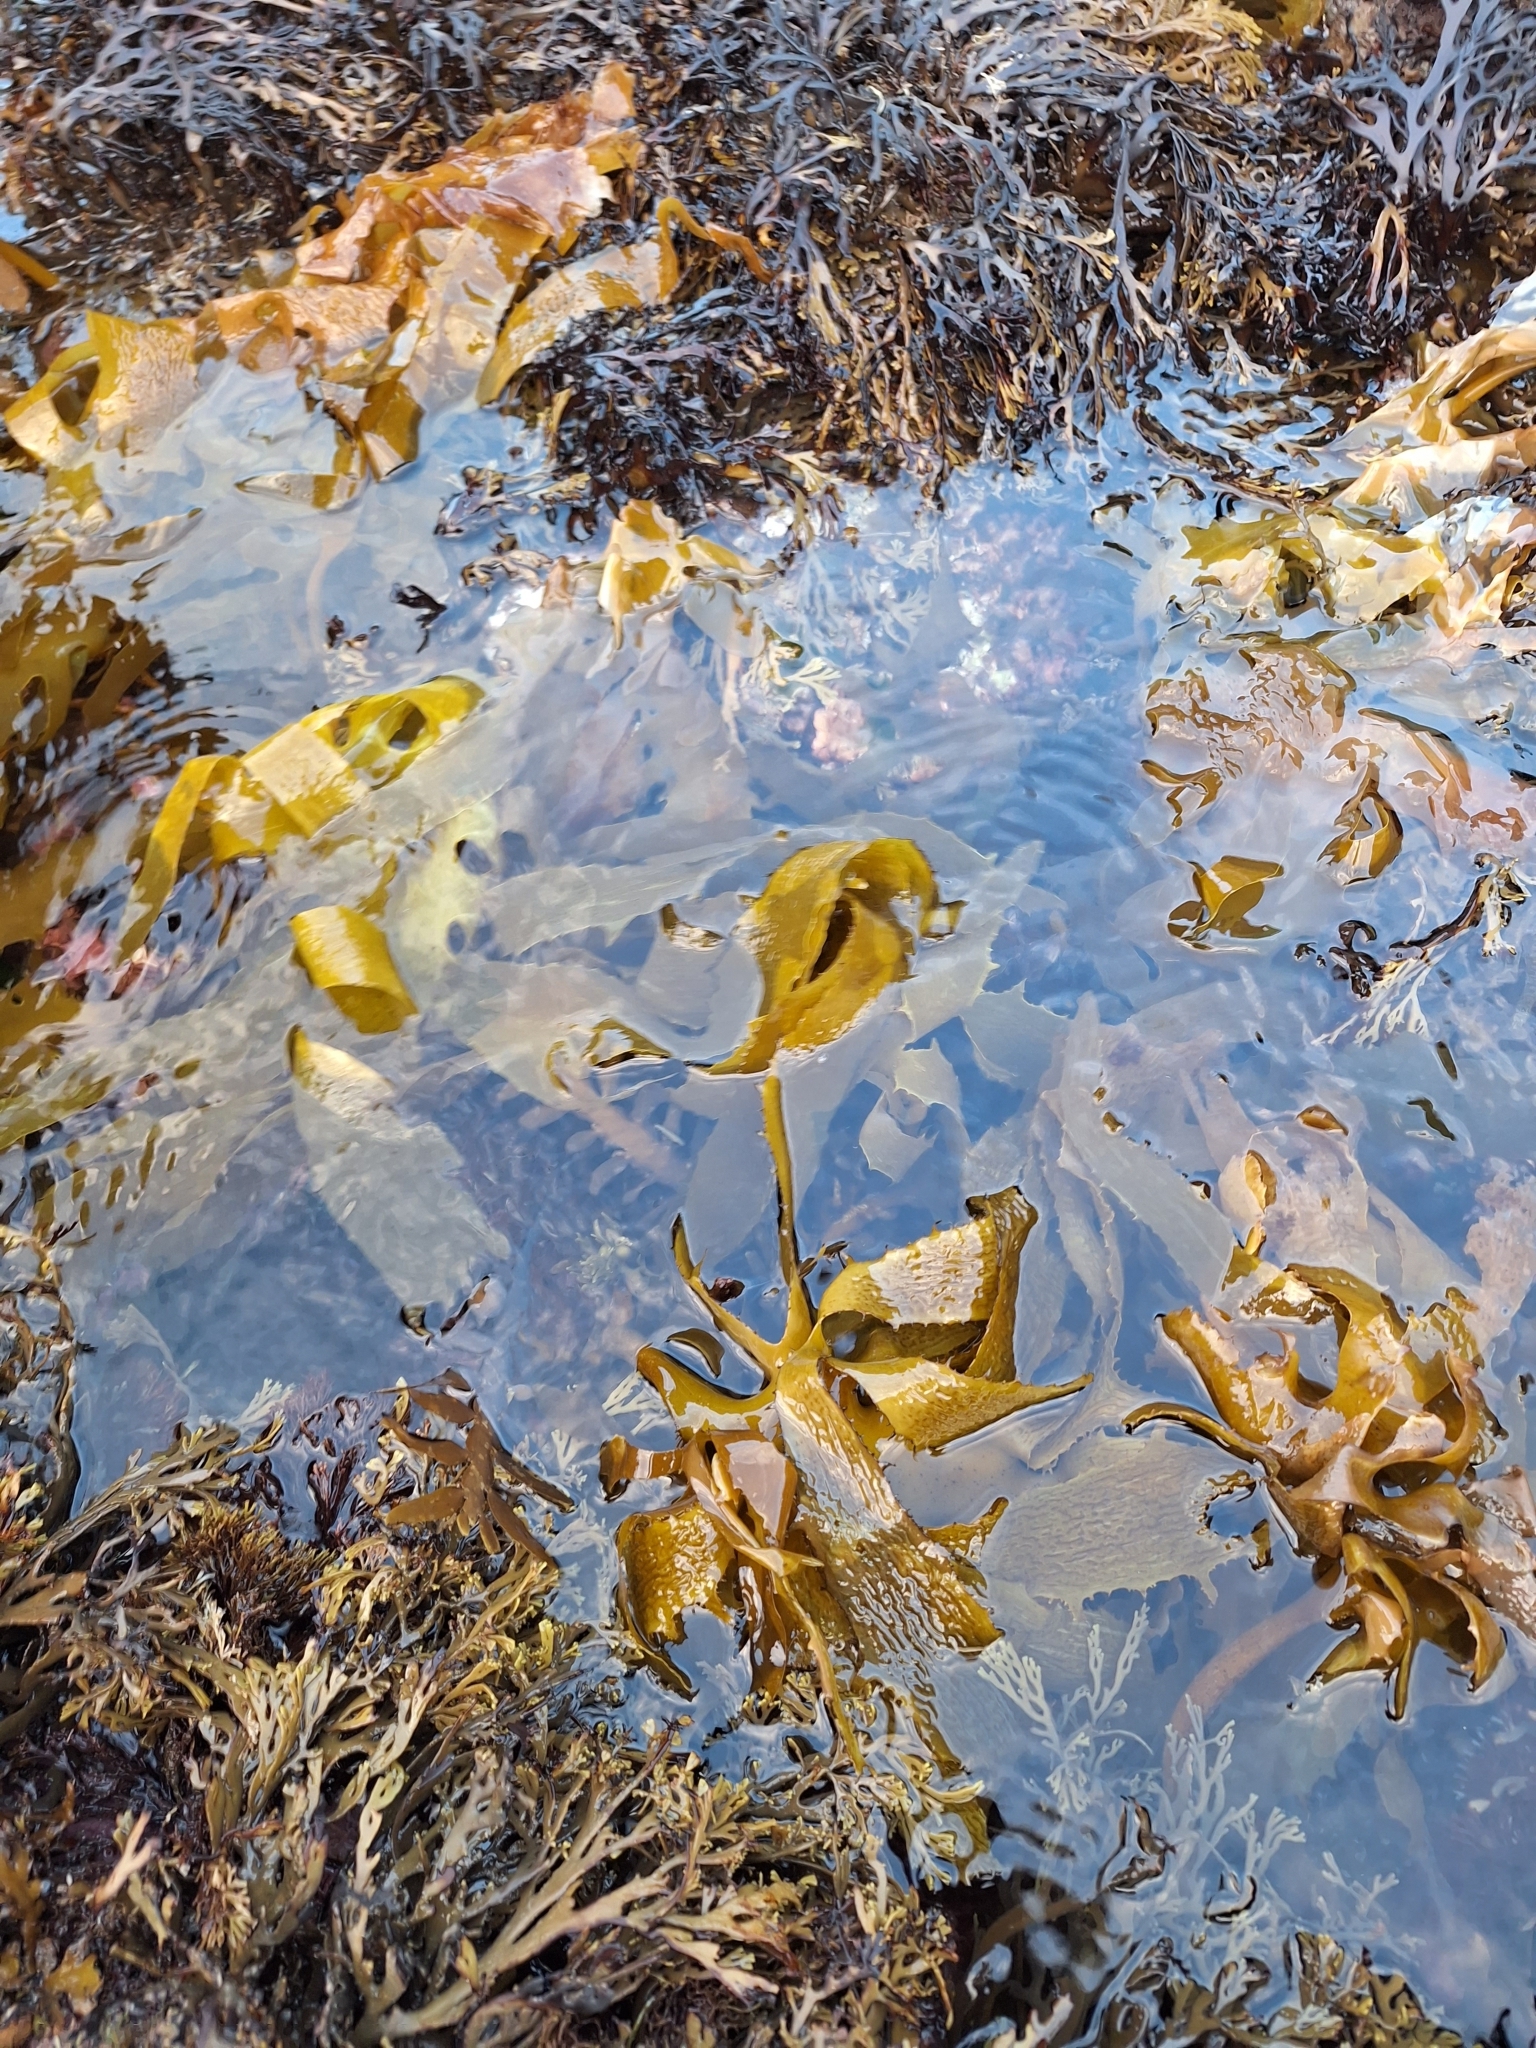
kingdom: Chromista
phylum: Ochrophyta
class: Phaeophyceae
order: Laminariales
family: Lessoniaceae
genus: Ecklonia
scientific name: Ecklonia radiata
